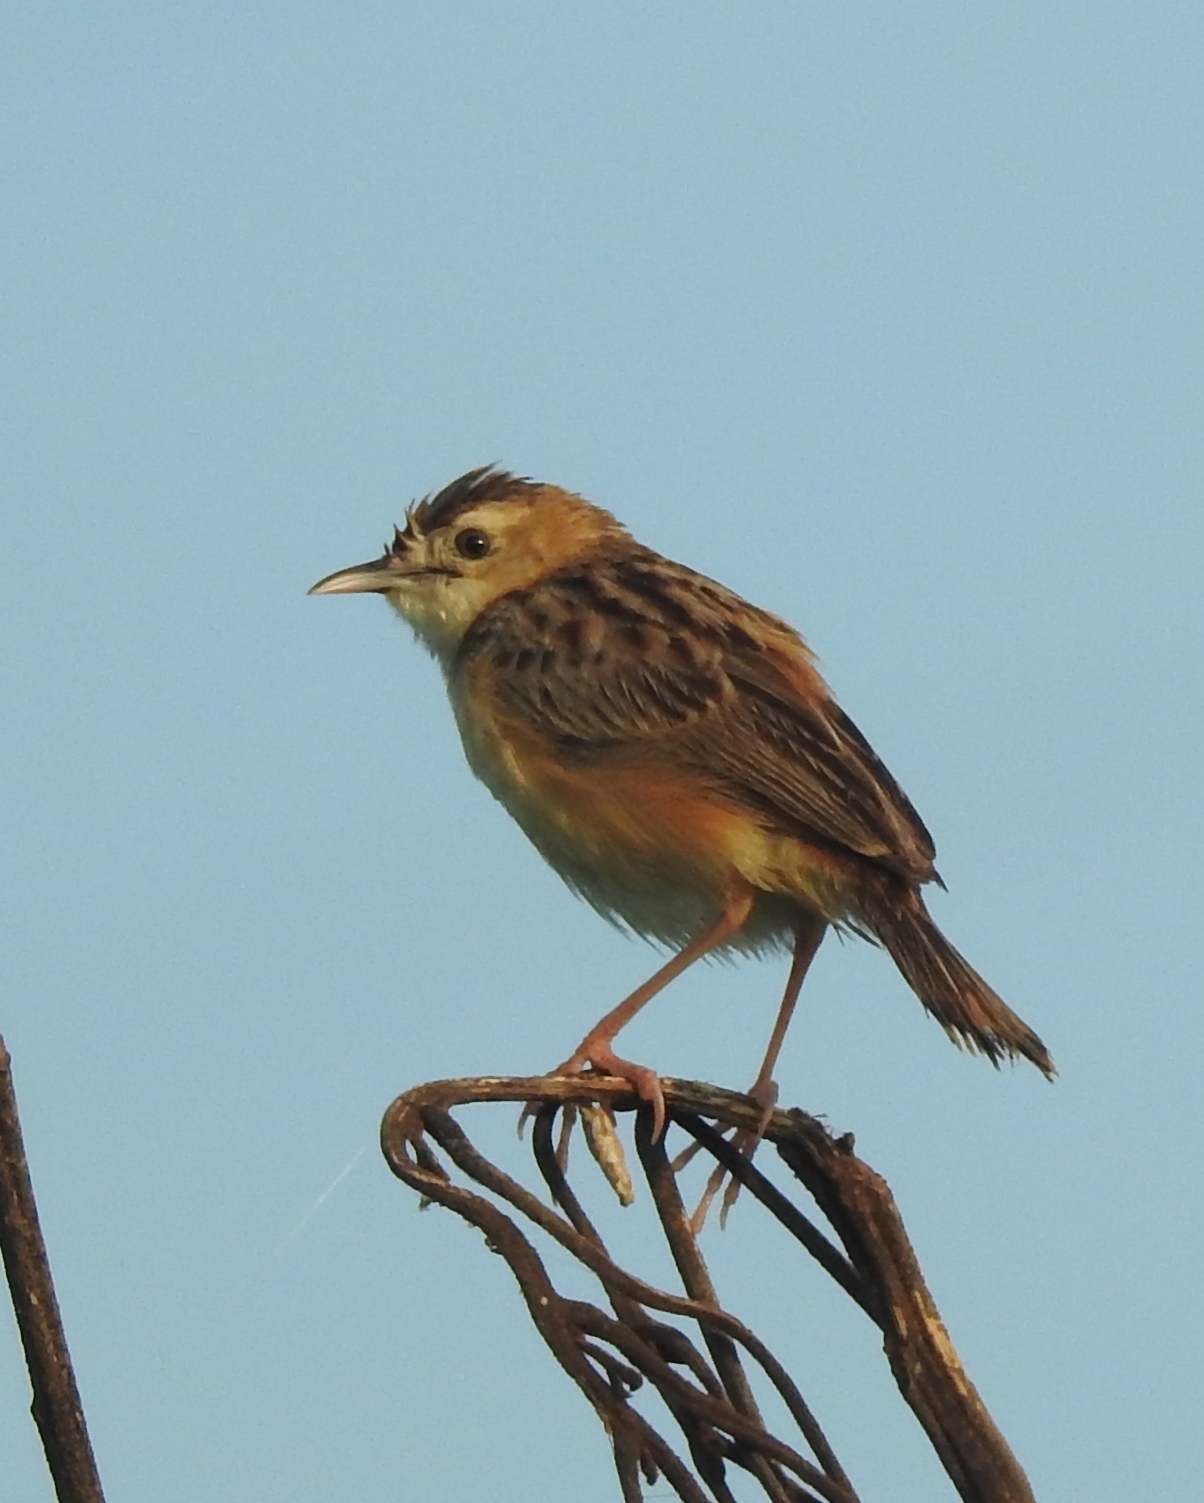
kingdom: Animalia
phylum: Chordata
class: Aves
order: Passeriformes
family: Cisticolidae
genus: Cisticola
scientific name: Cisticola juncidis
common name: Zitting cisticola
